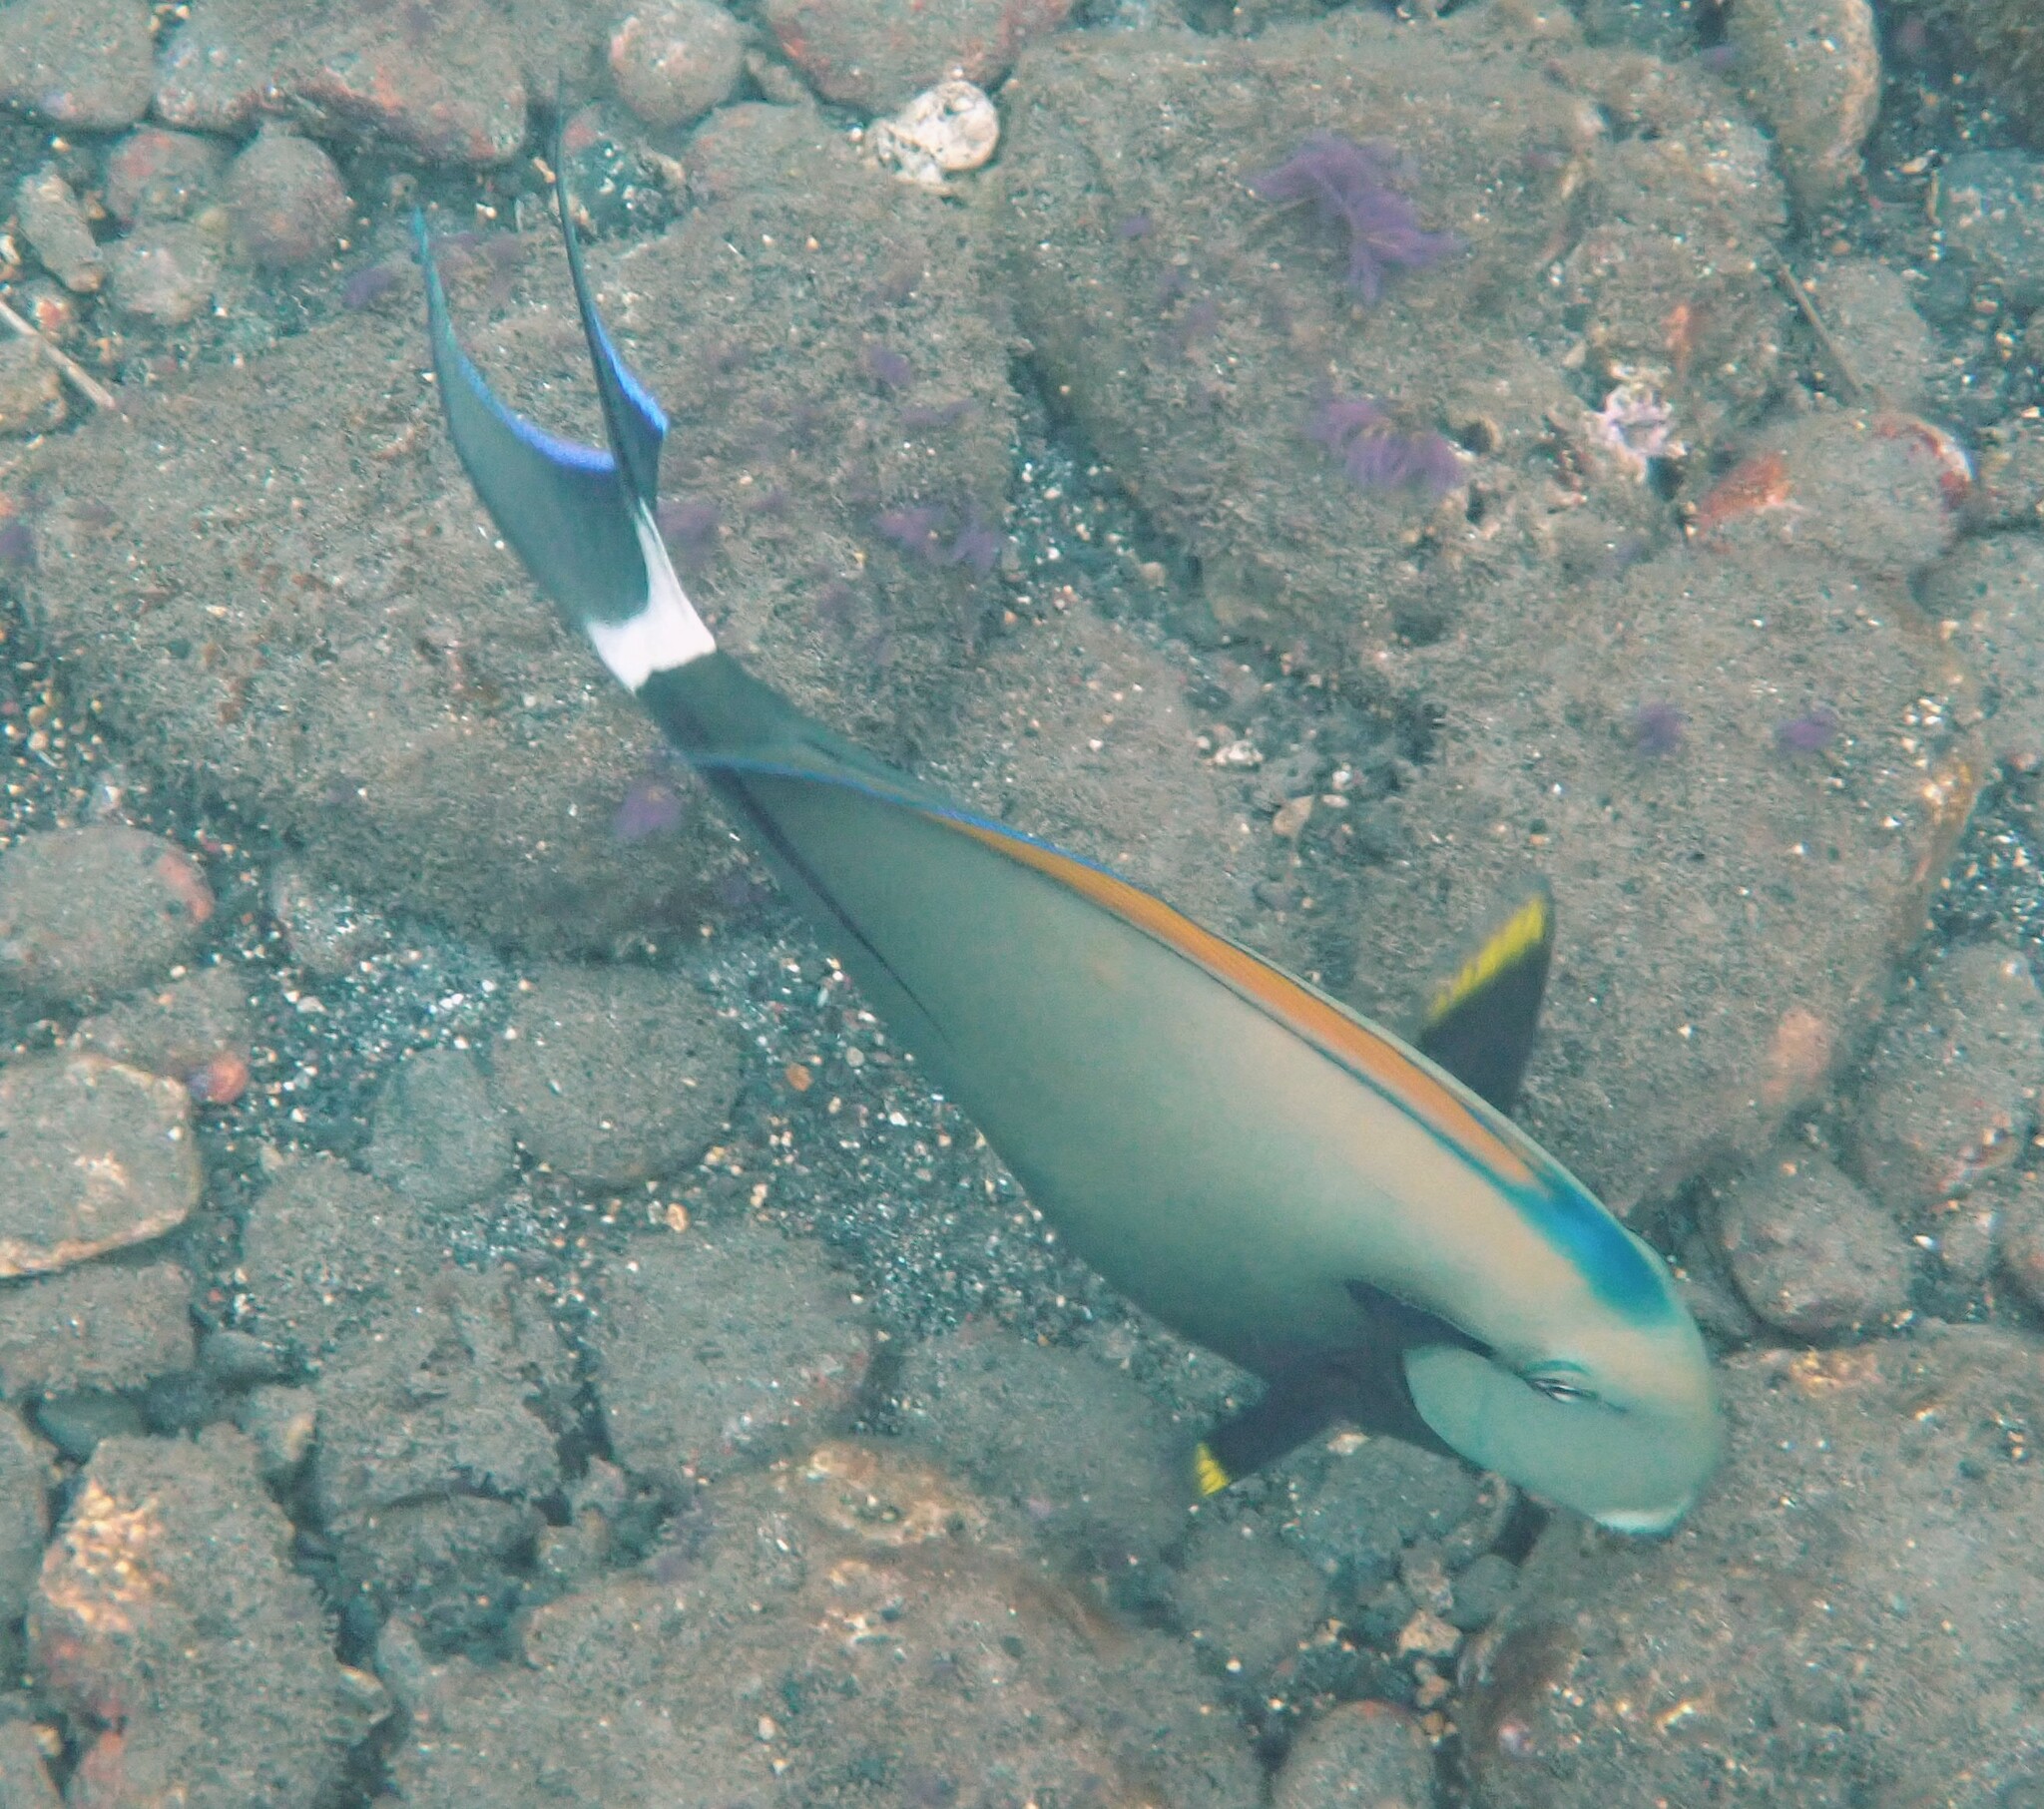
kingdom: Animalia
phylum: Chordata
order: Perciformes
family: Acanthuridae
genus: Acanthurus
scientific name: Acanthurus nigricauda
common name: Black-barred surgeonfish
